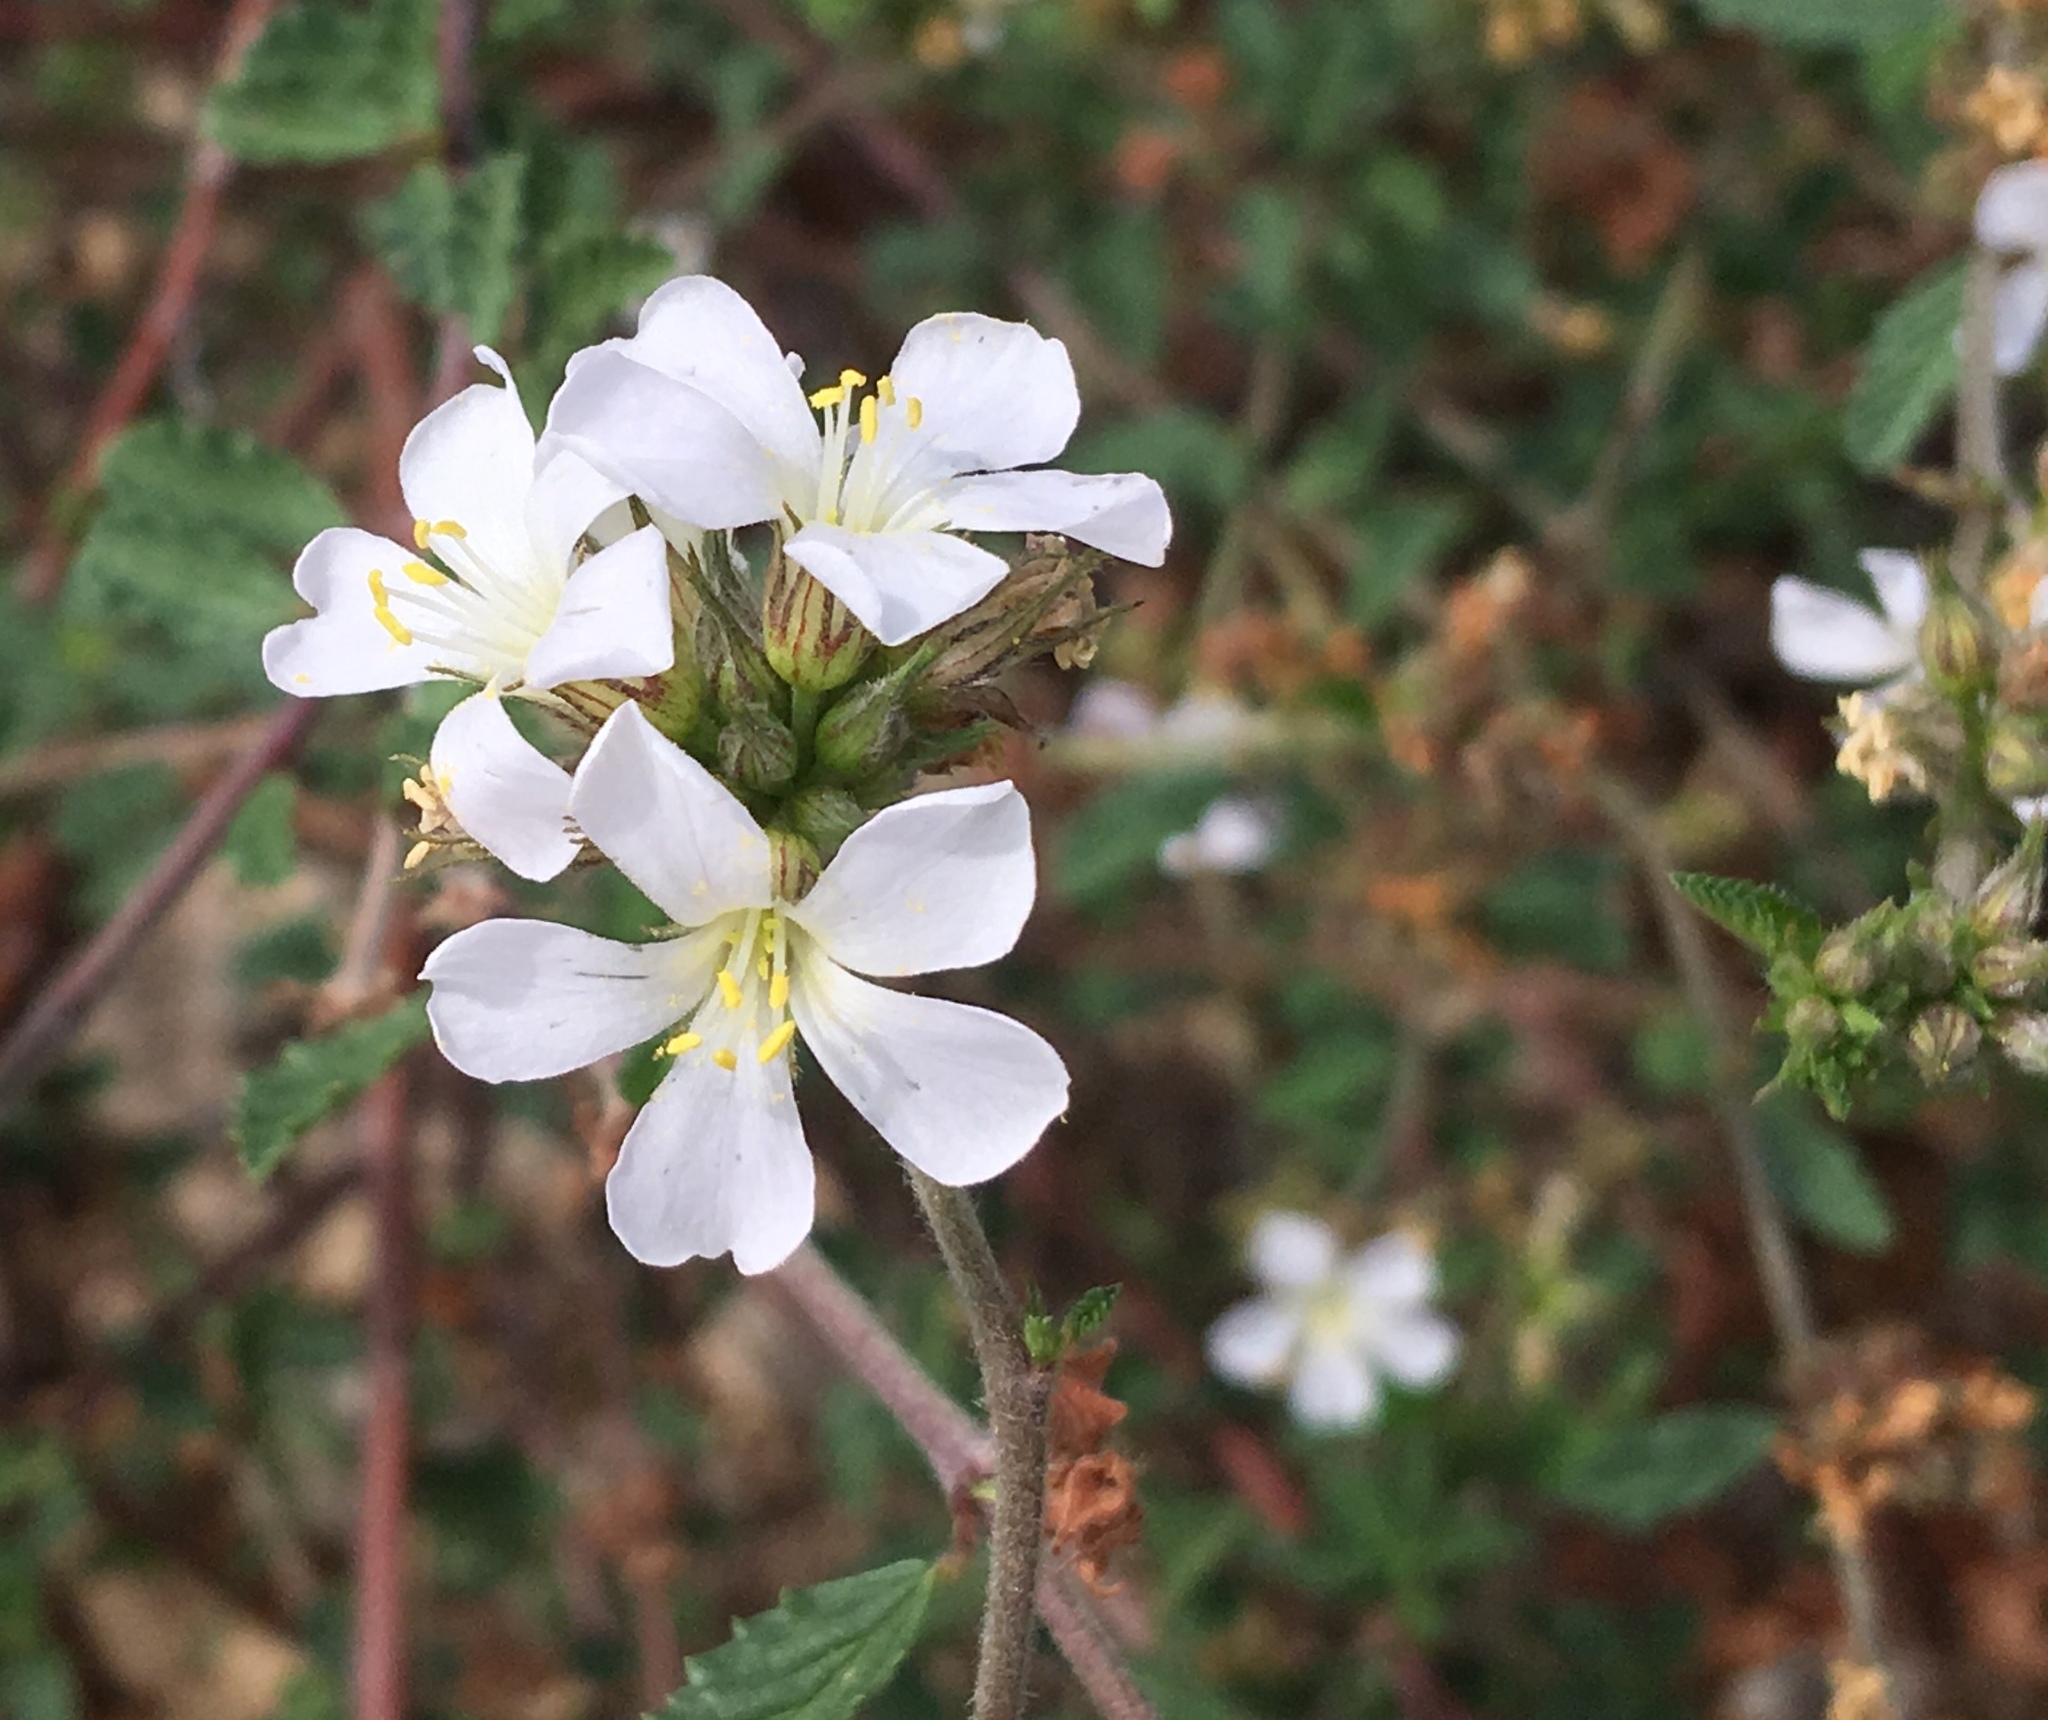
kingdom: Plantae
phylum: Tracheophyta
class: Magnoliopsida
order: Malvales
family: Malvaceae
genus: Melochia
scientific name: Melochia parvifolia
